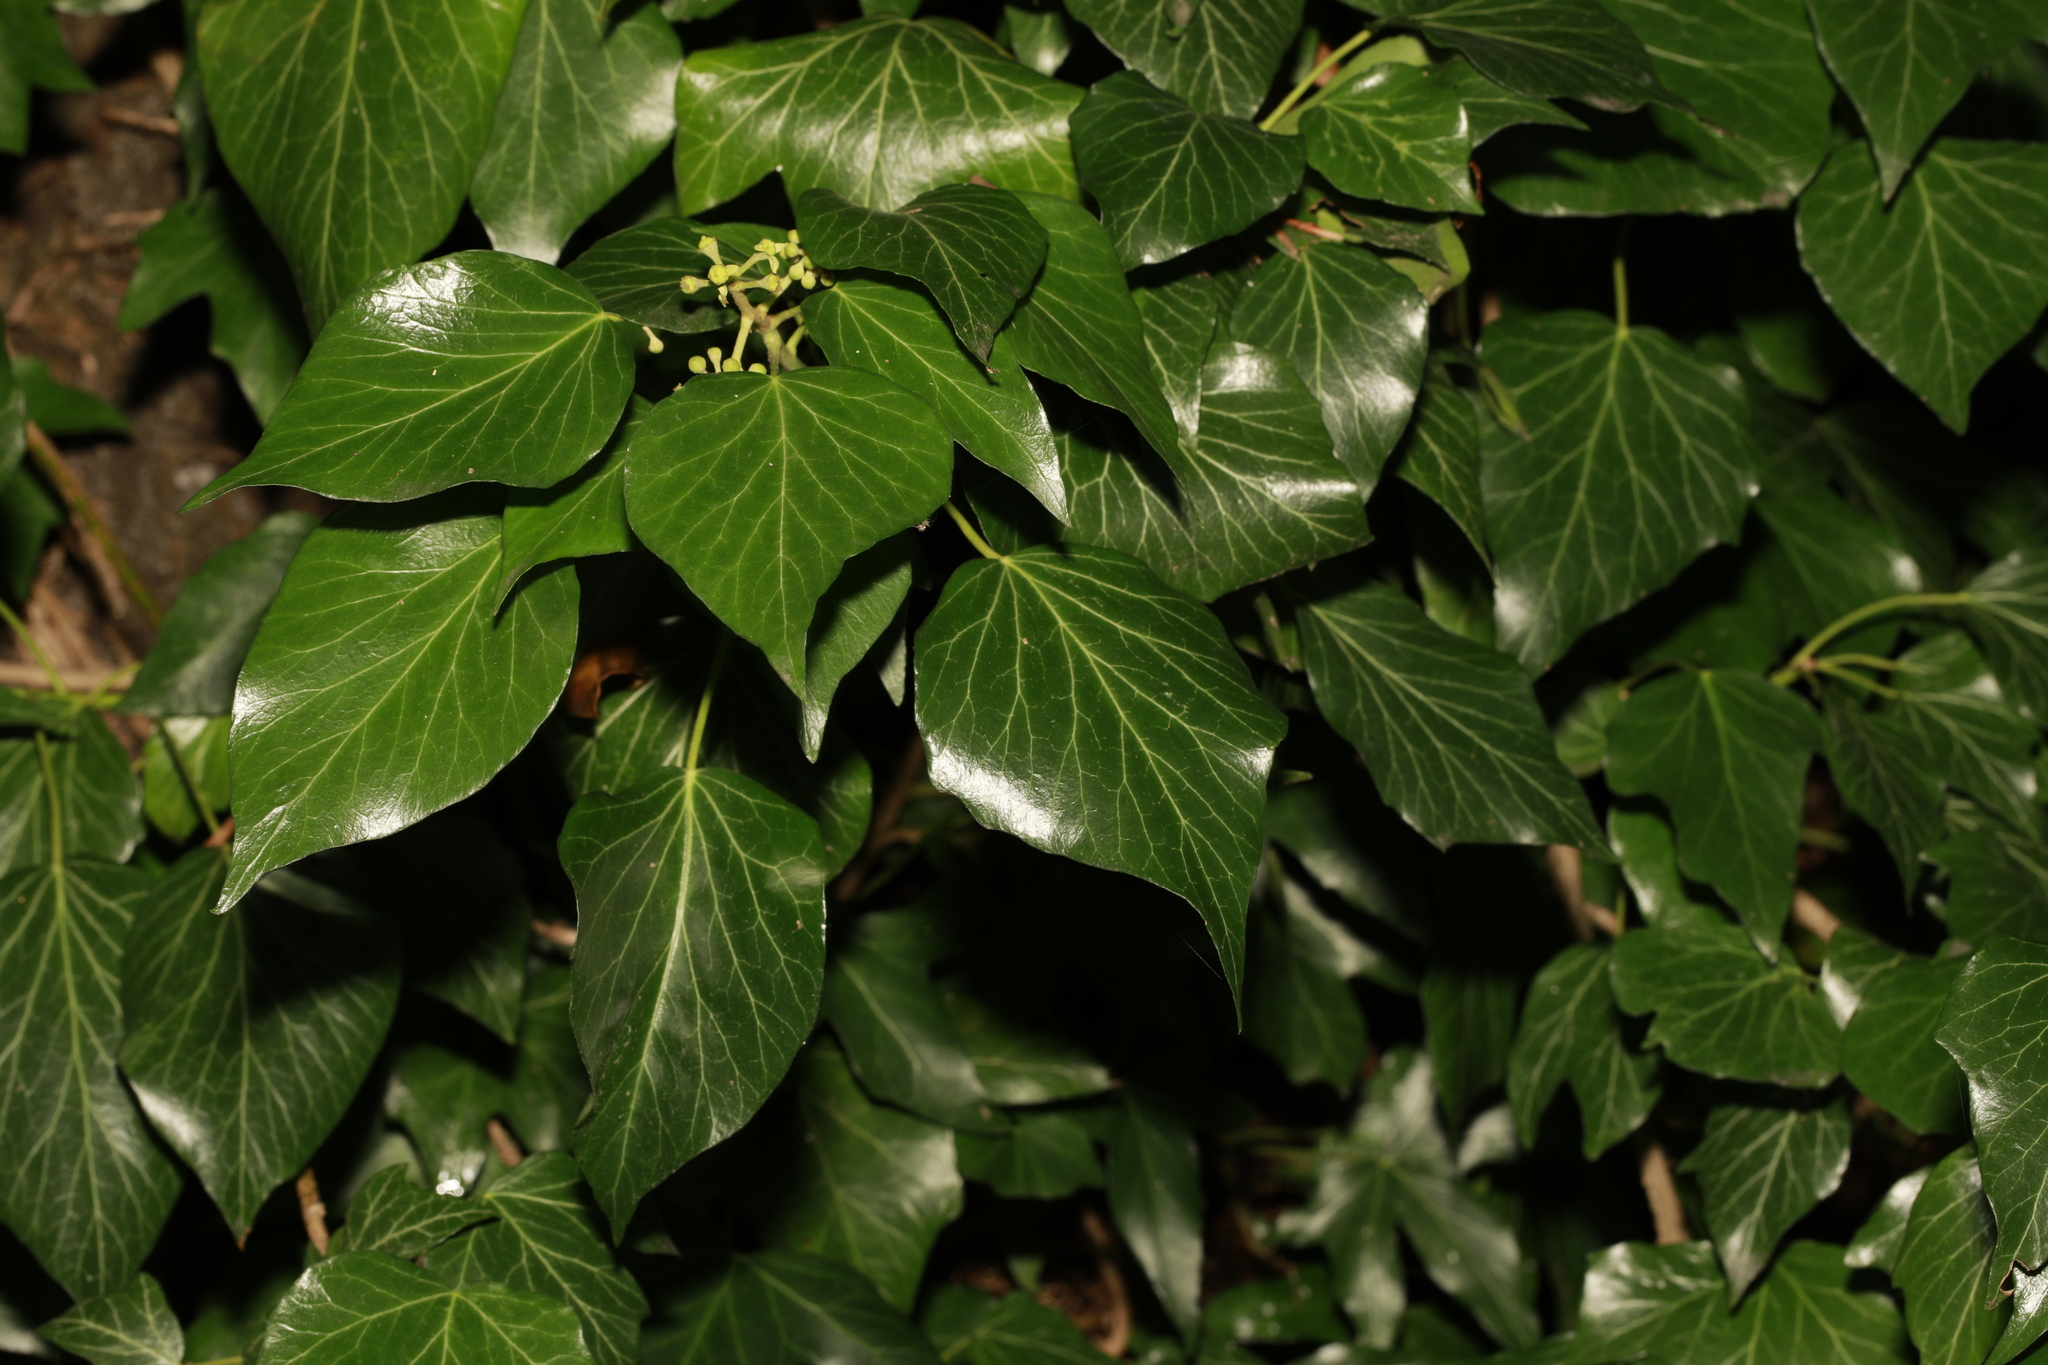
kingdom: Plantae
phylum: Tracheophyta
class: Magnoliopsida
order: Apiales
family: Araliaceae
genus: Hedera
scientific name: Hedera helix
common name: Ivy
